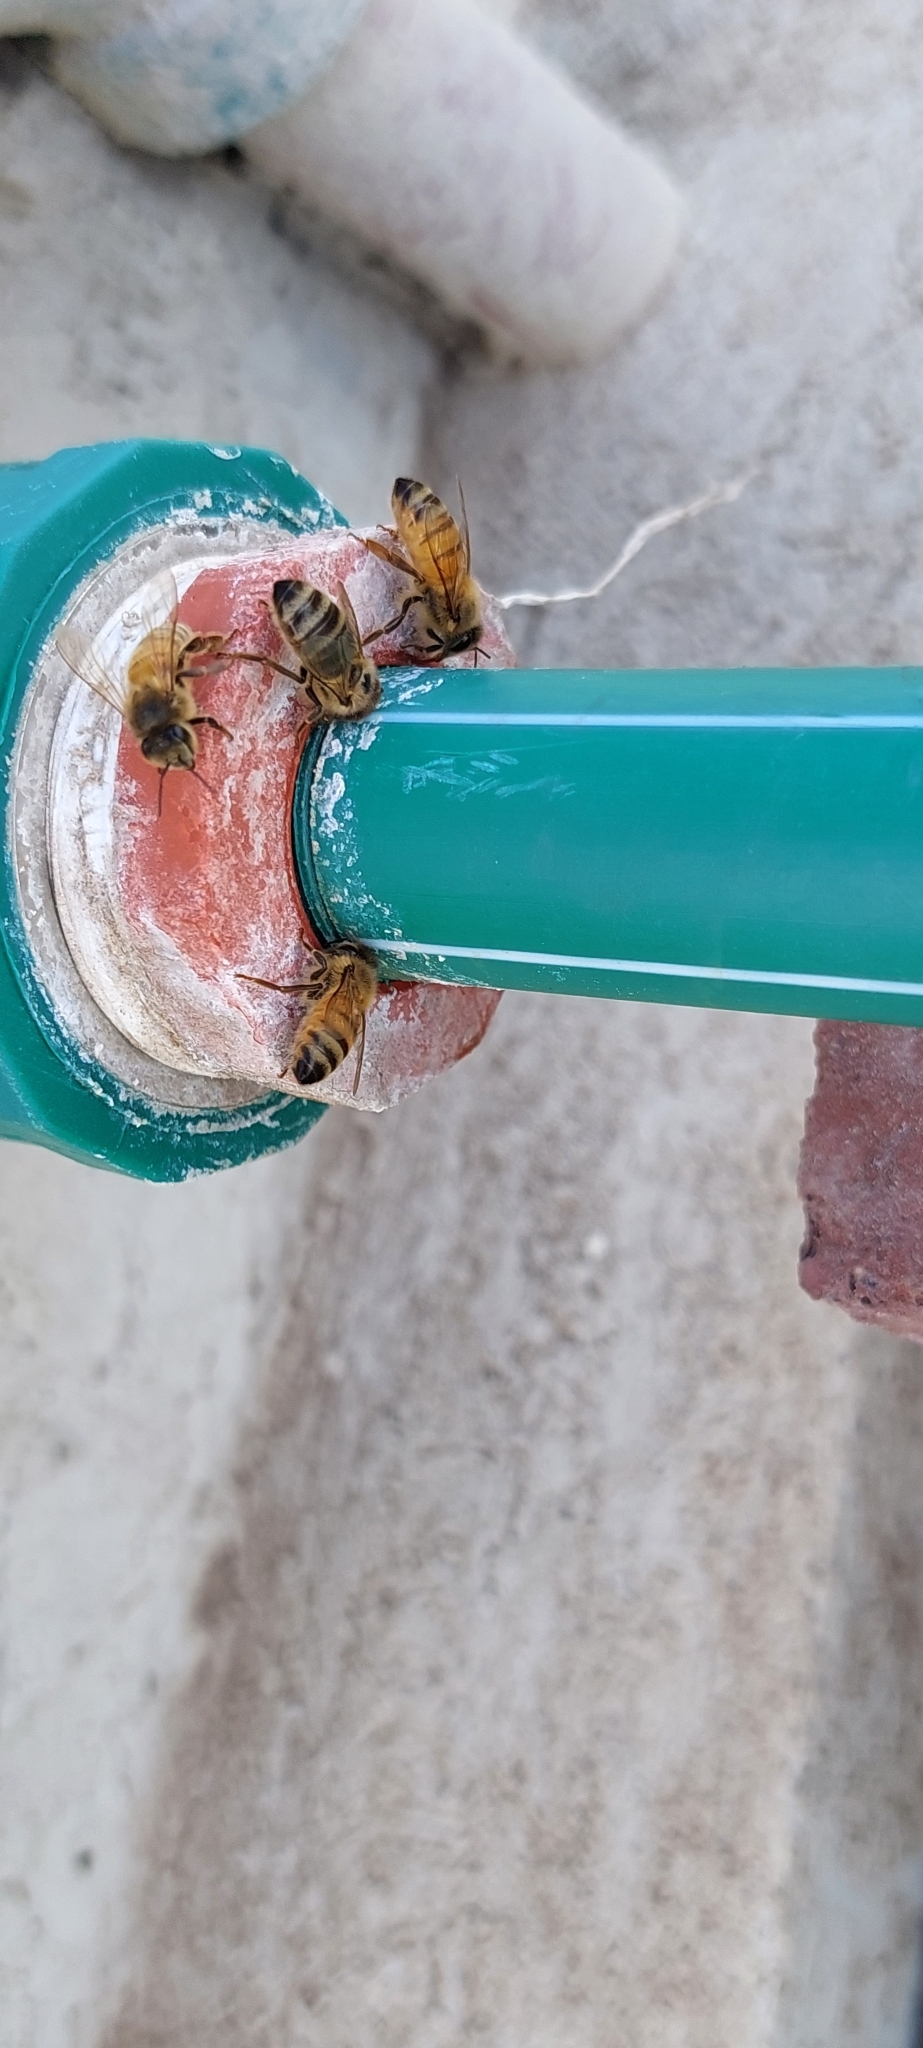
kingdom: Animalia
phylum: Arthropoda
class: Insecta
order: Hymenoptera
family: Apidae
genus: Apis
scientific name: Apis mellifera
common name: Honey bee
